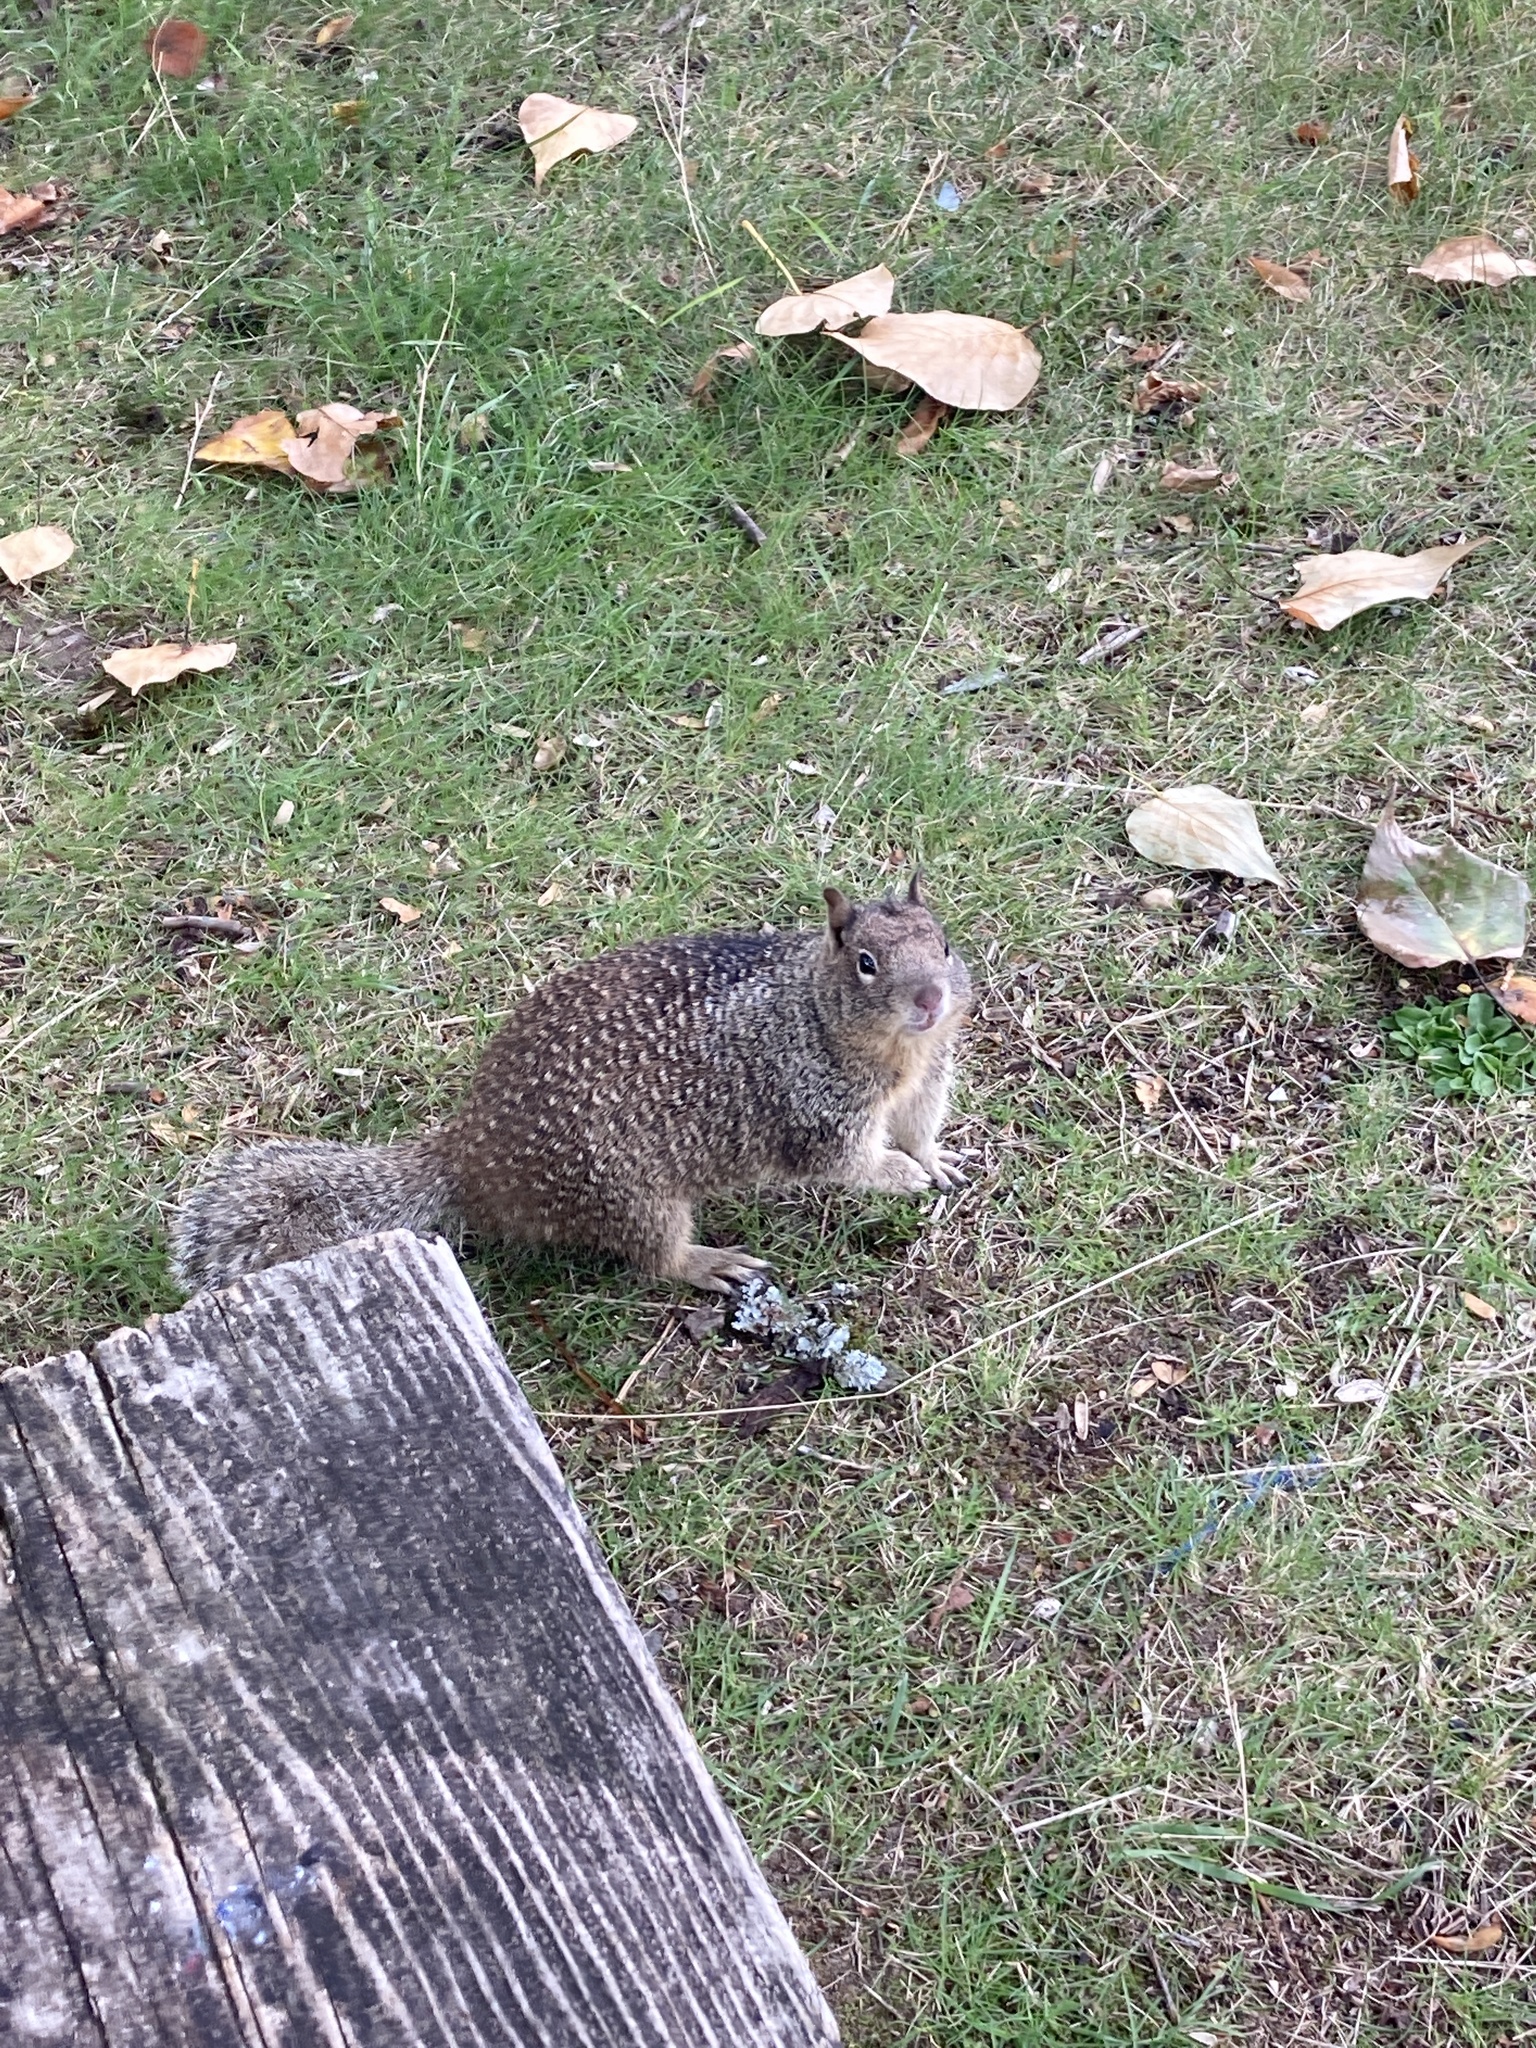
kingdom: Animalia
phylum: Chordata
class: Mammalia
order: Rodentia
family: Sciuridae
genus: Otospermophilus
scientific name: Otospermophilus beecheyi
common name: California ground squirrel
